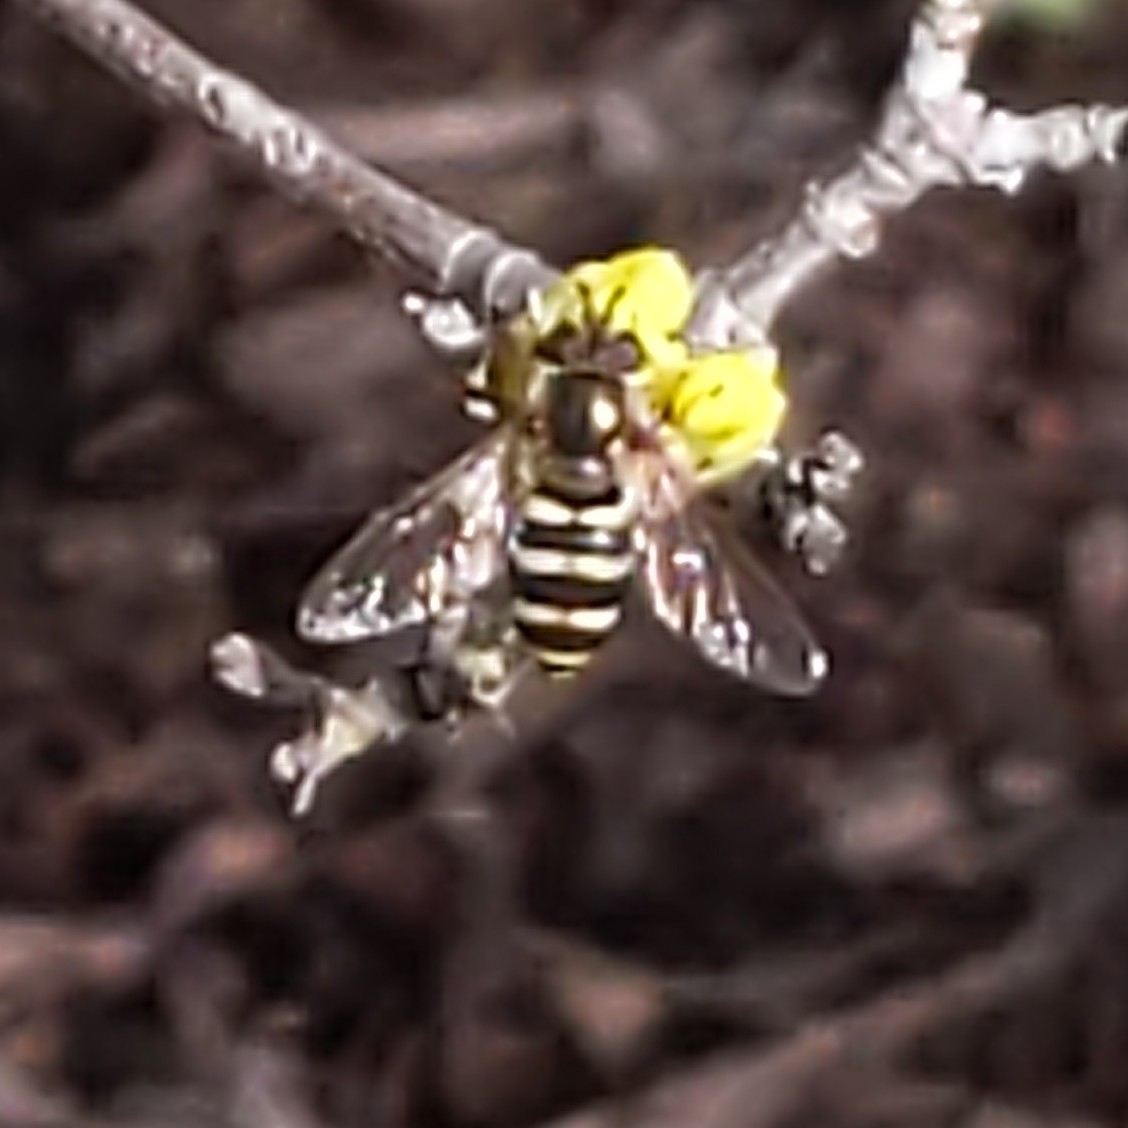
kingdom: Animalia
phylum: Arthropoda
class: Insecta
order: Diptera
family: Syrphidae
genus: Eupeodes
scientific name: Eupeodes
